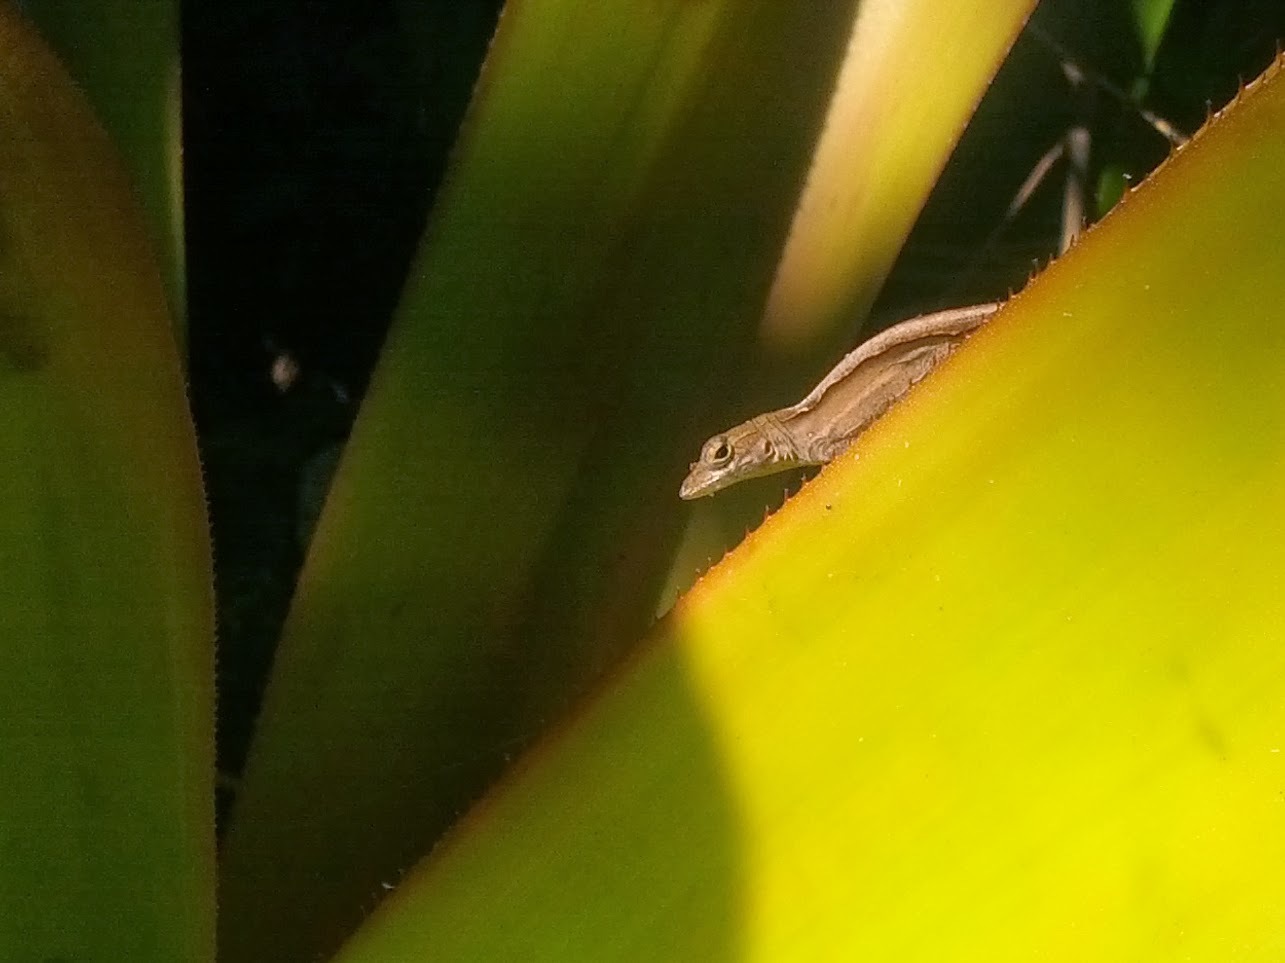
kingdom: Animalia
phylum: Chordata
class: Squamata
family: Dactyloidae
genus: Anolis
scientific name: Anolis sagrei
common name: Brown anole
